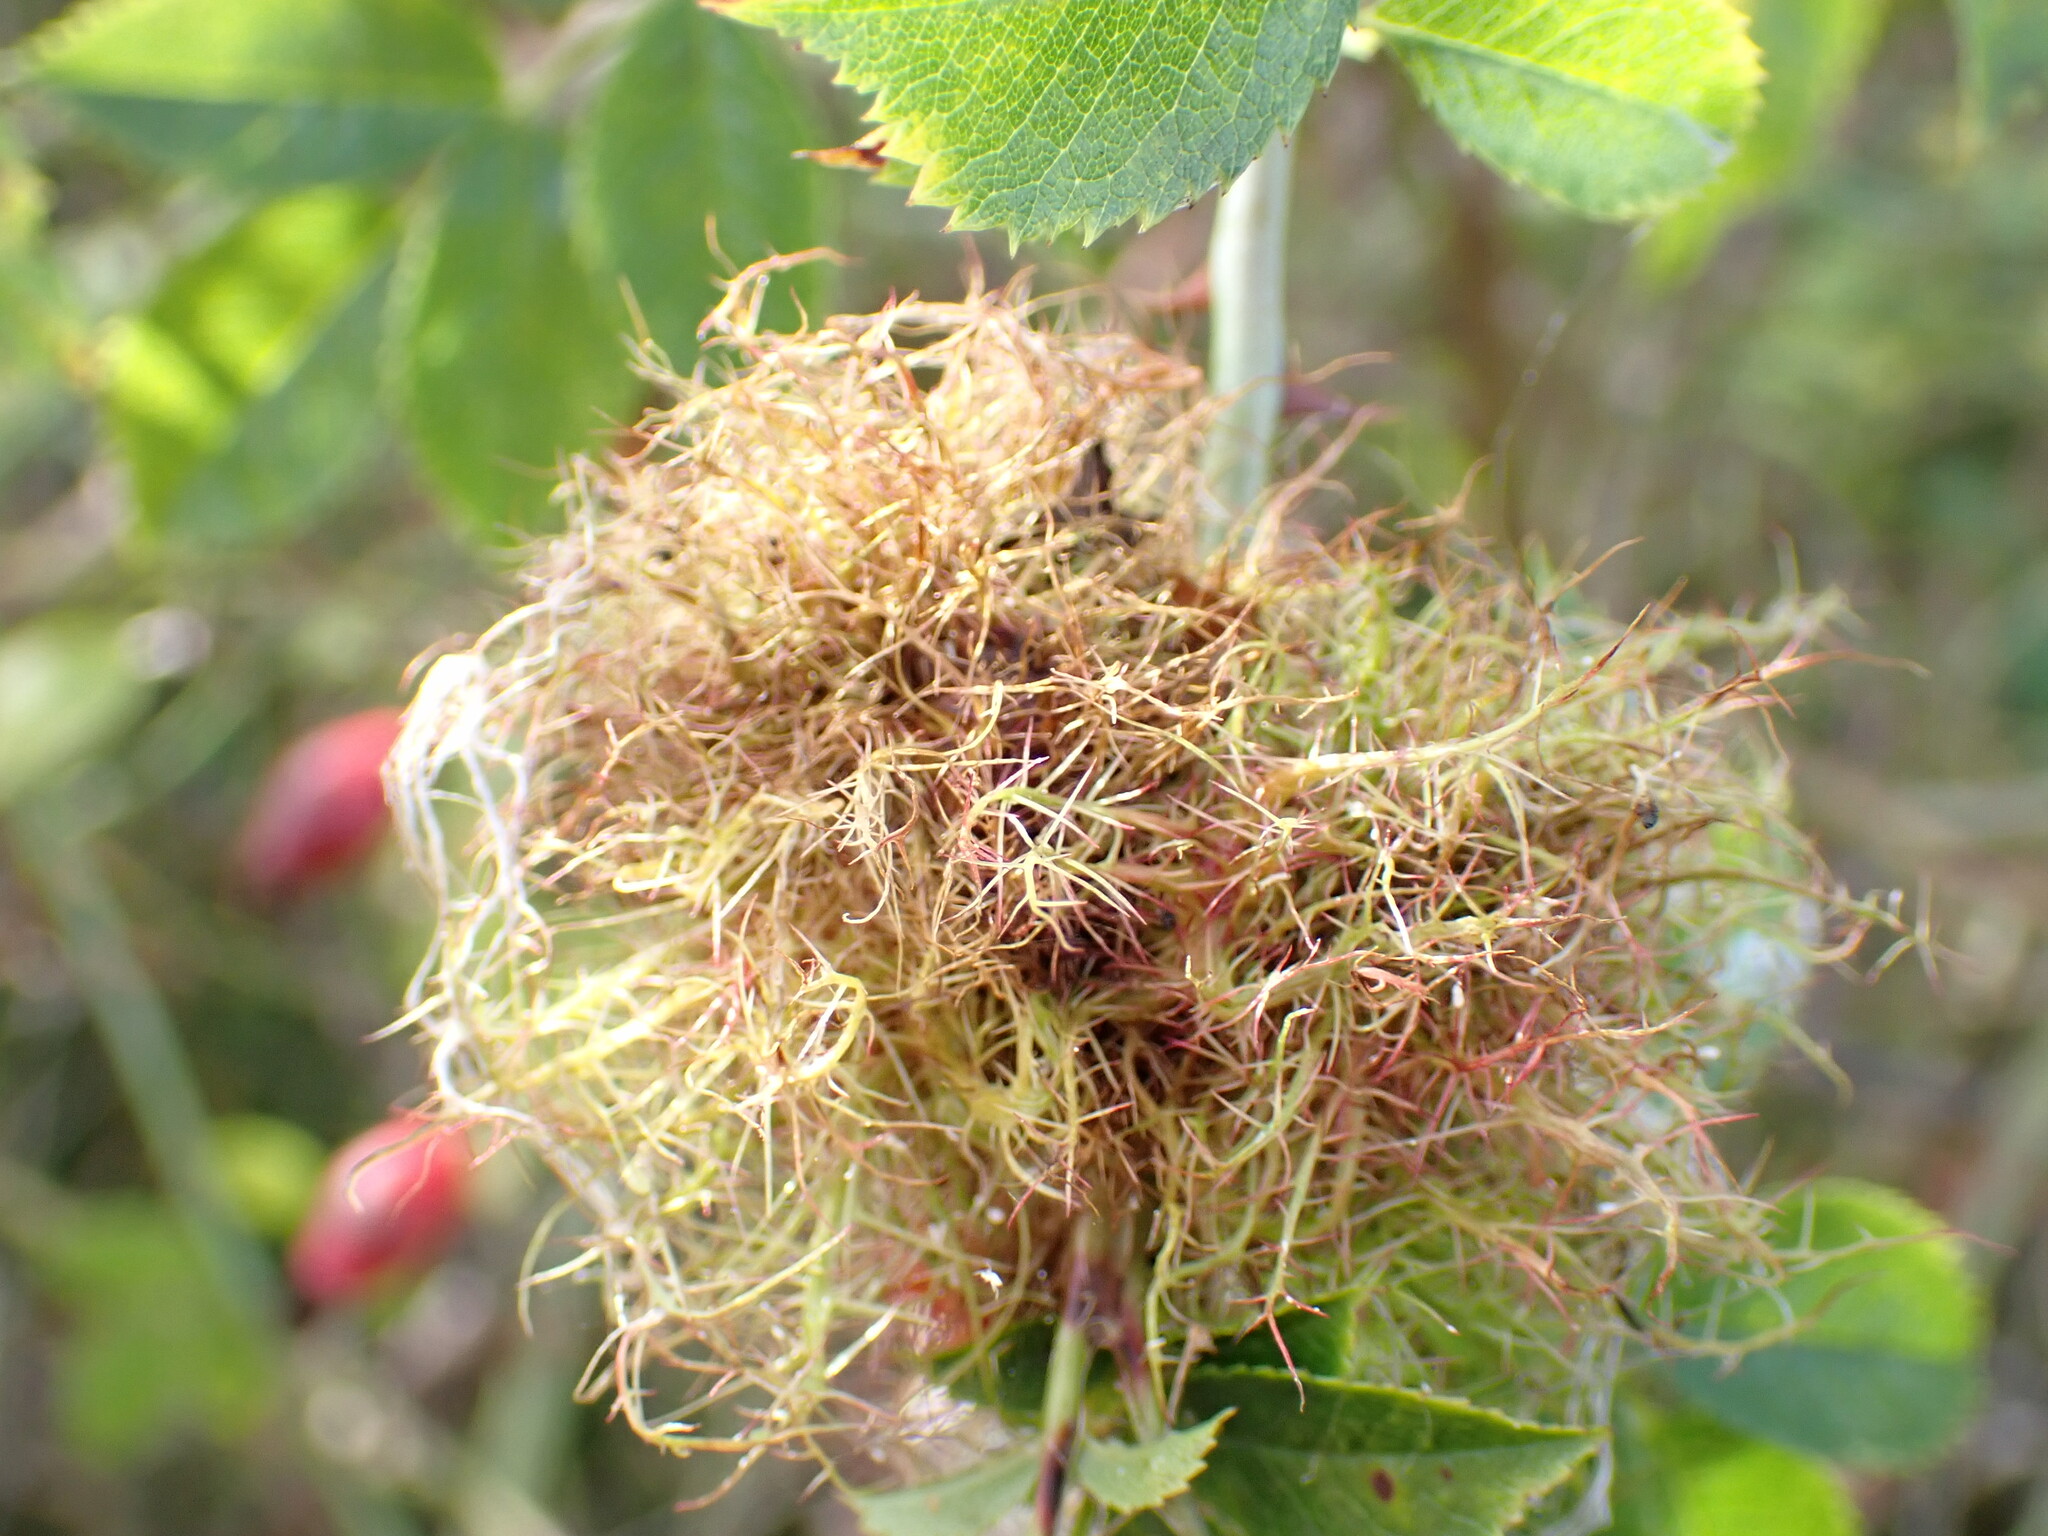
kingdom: Animalia
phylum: Arthropoda
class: Insecta
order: Hymenoptera
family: Cynipidae
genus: Diplolepis
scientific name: Diplolepis rosae
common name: Bedeguar gall
